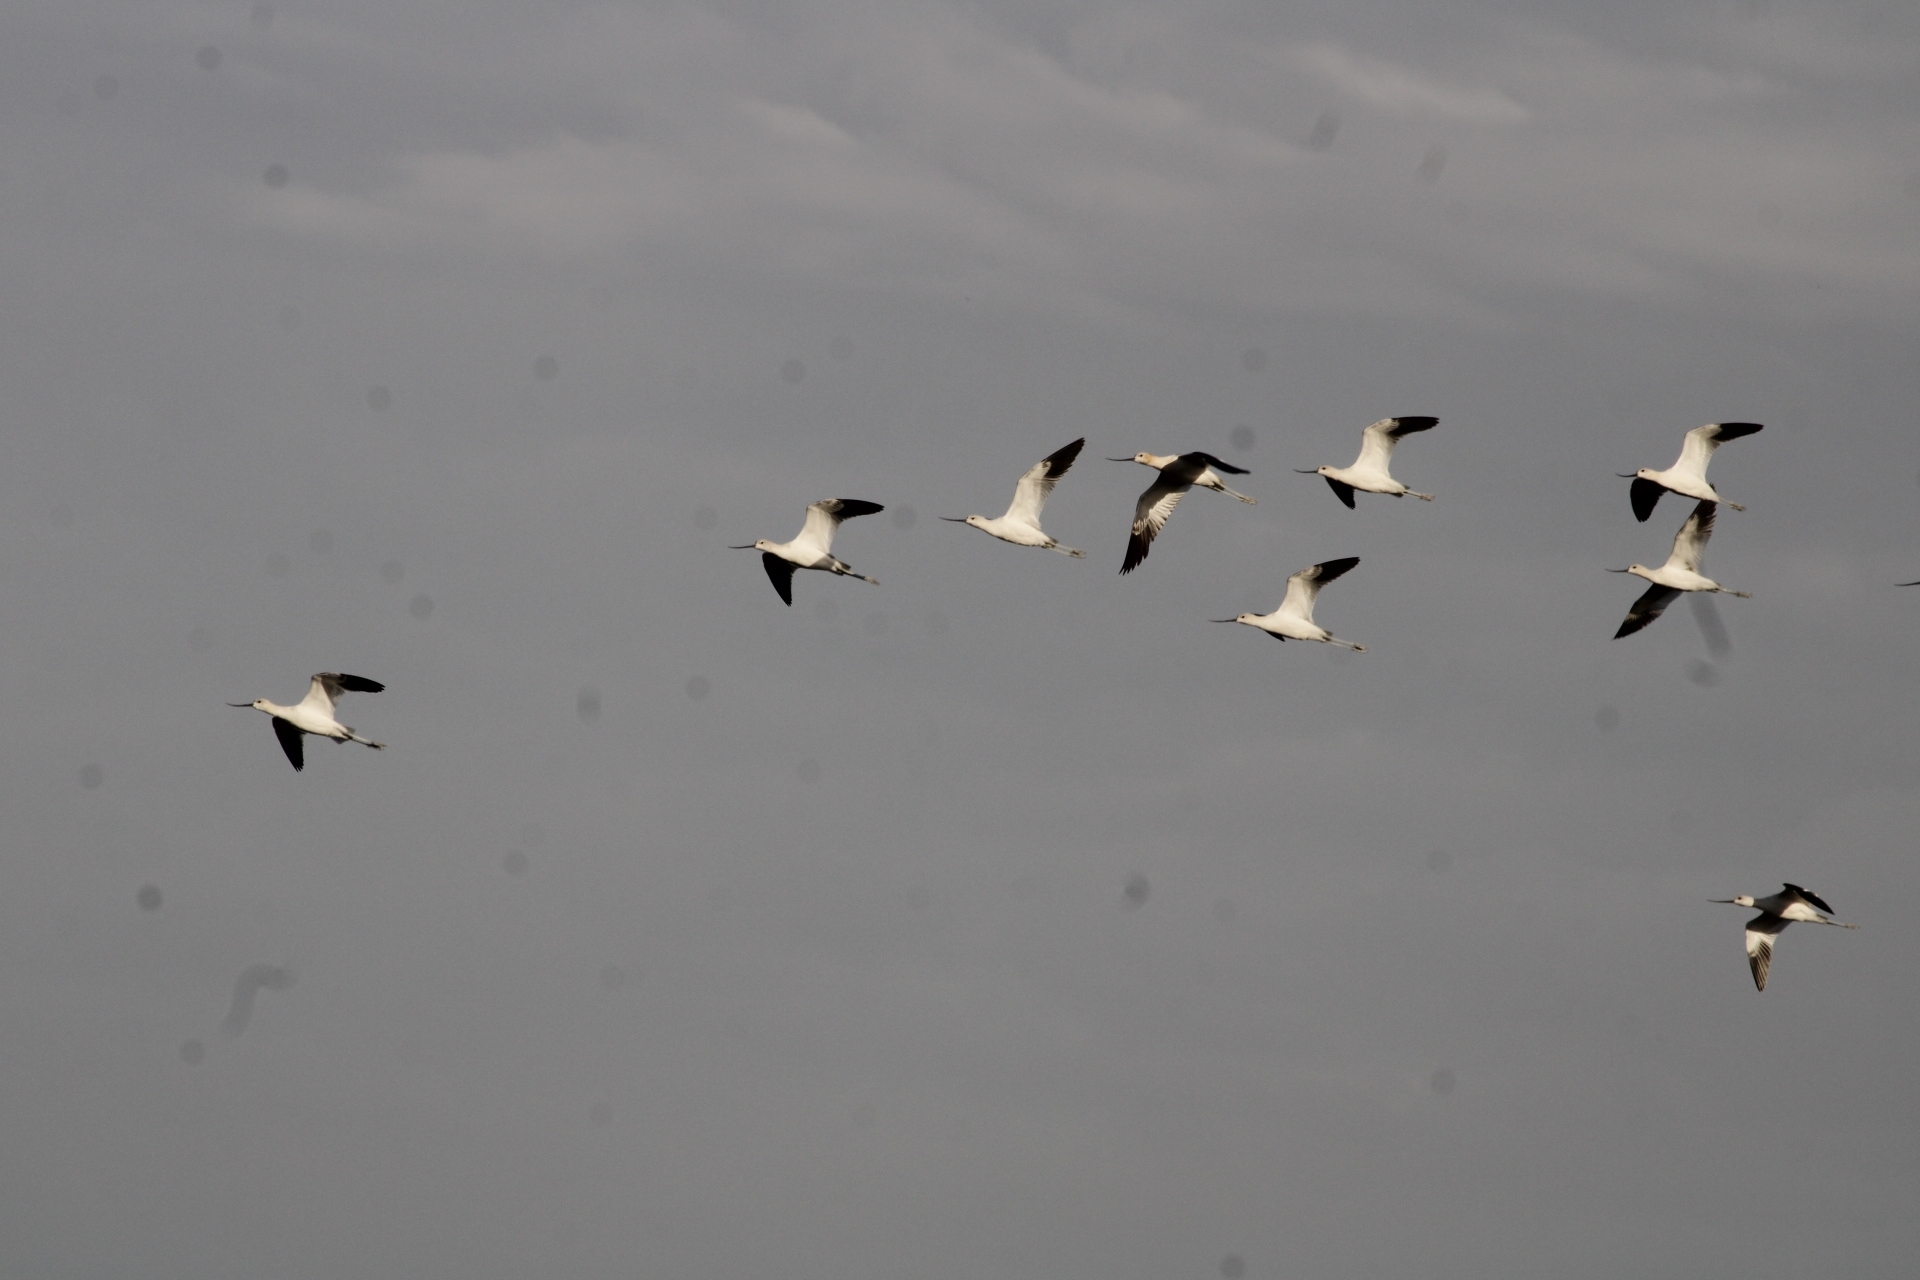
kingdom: Animalia
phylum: Chordata
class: Aves
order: Charadriiformes
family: Recurvirostridae
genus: Recurvirostra
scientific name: Recurvirostra americana
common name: American avocet
